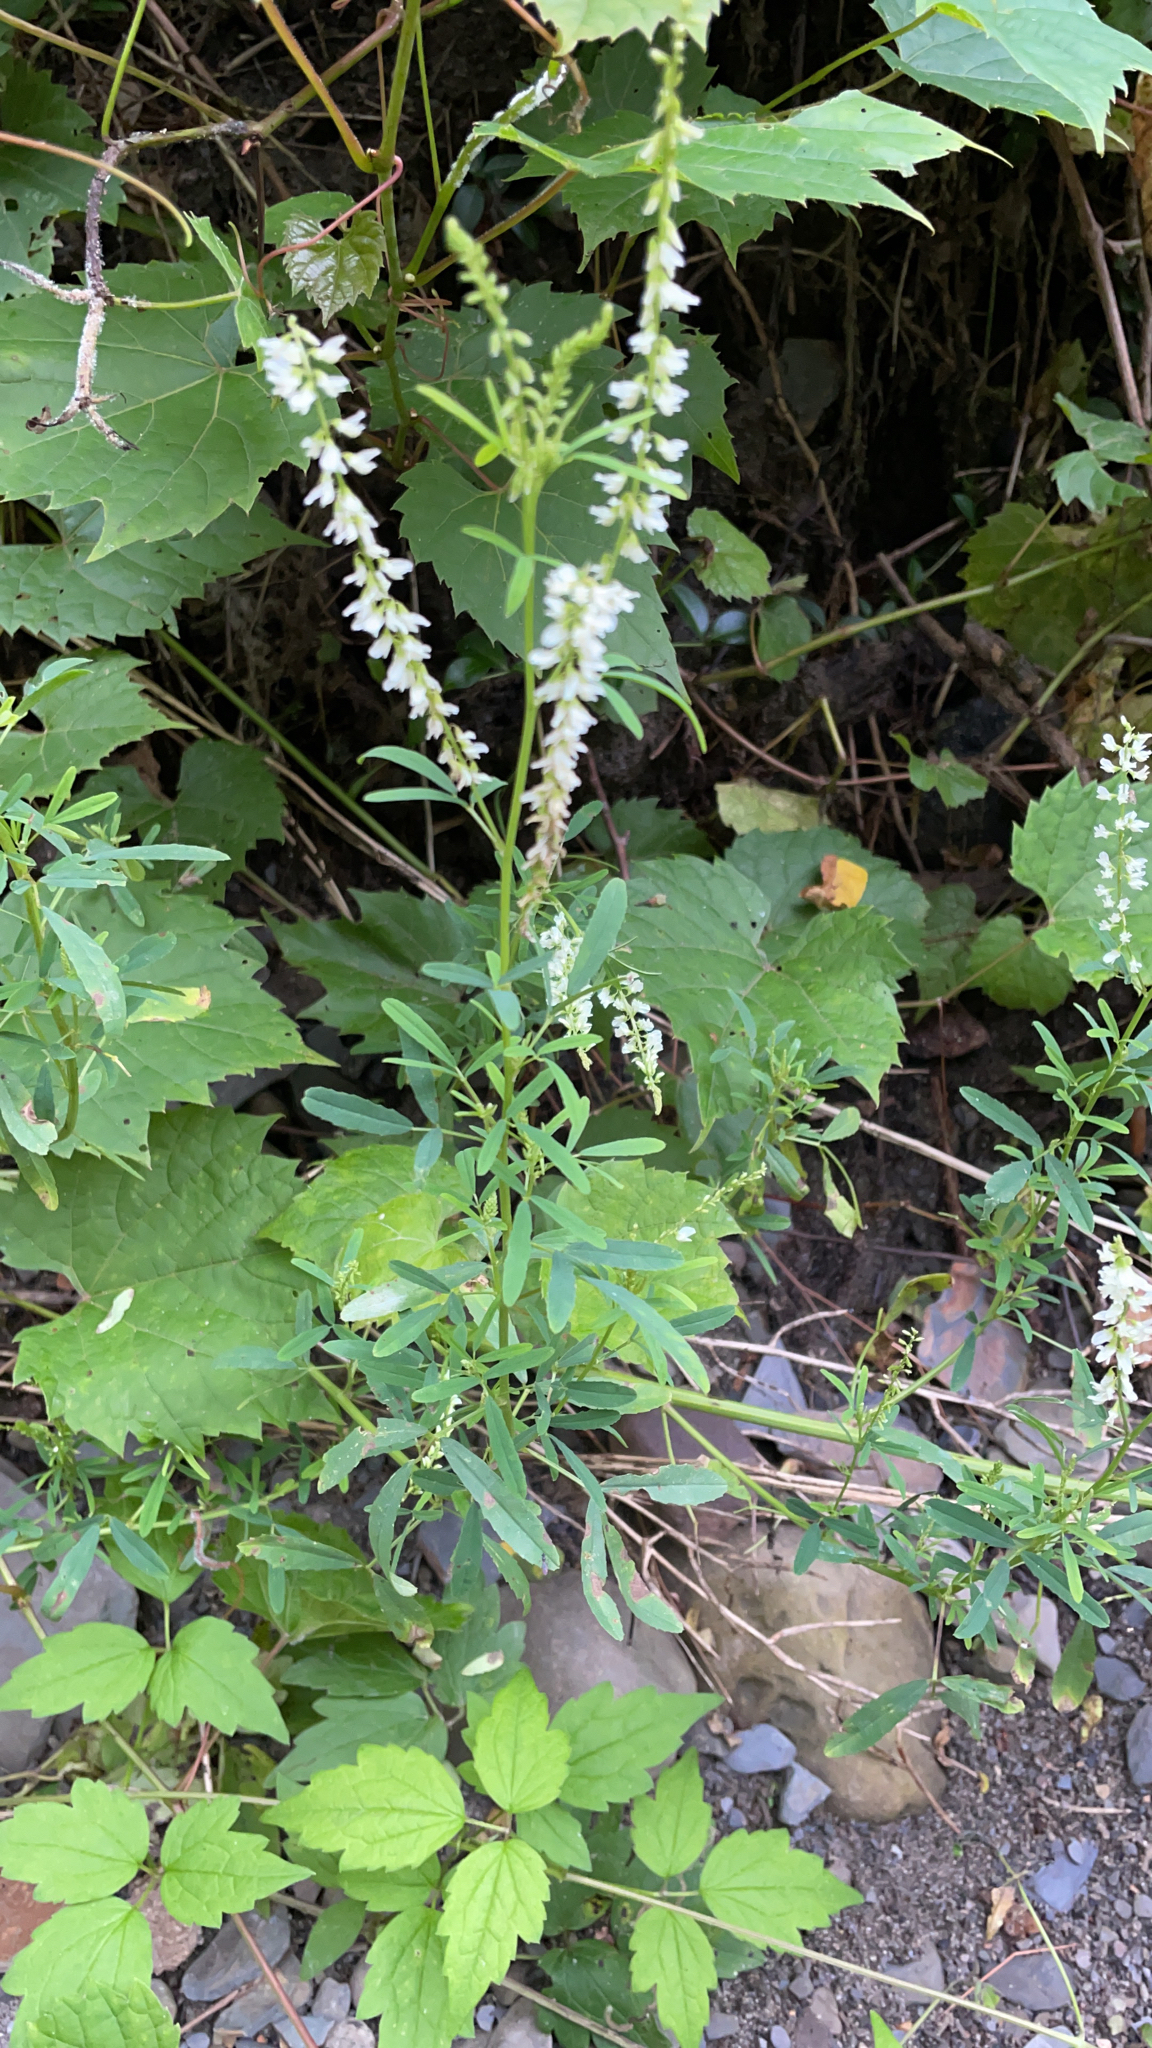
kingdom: Plantae
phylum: Tracheophyta
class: Magnoliopsida
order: Fabales
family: Fabaceae
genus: Melilotus
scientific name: Melilotus albus
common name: White melilot
